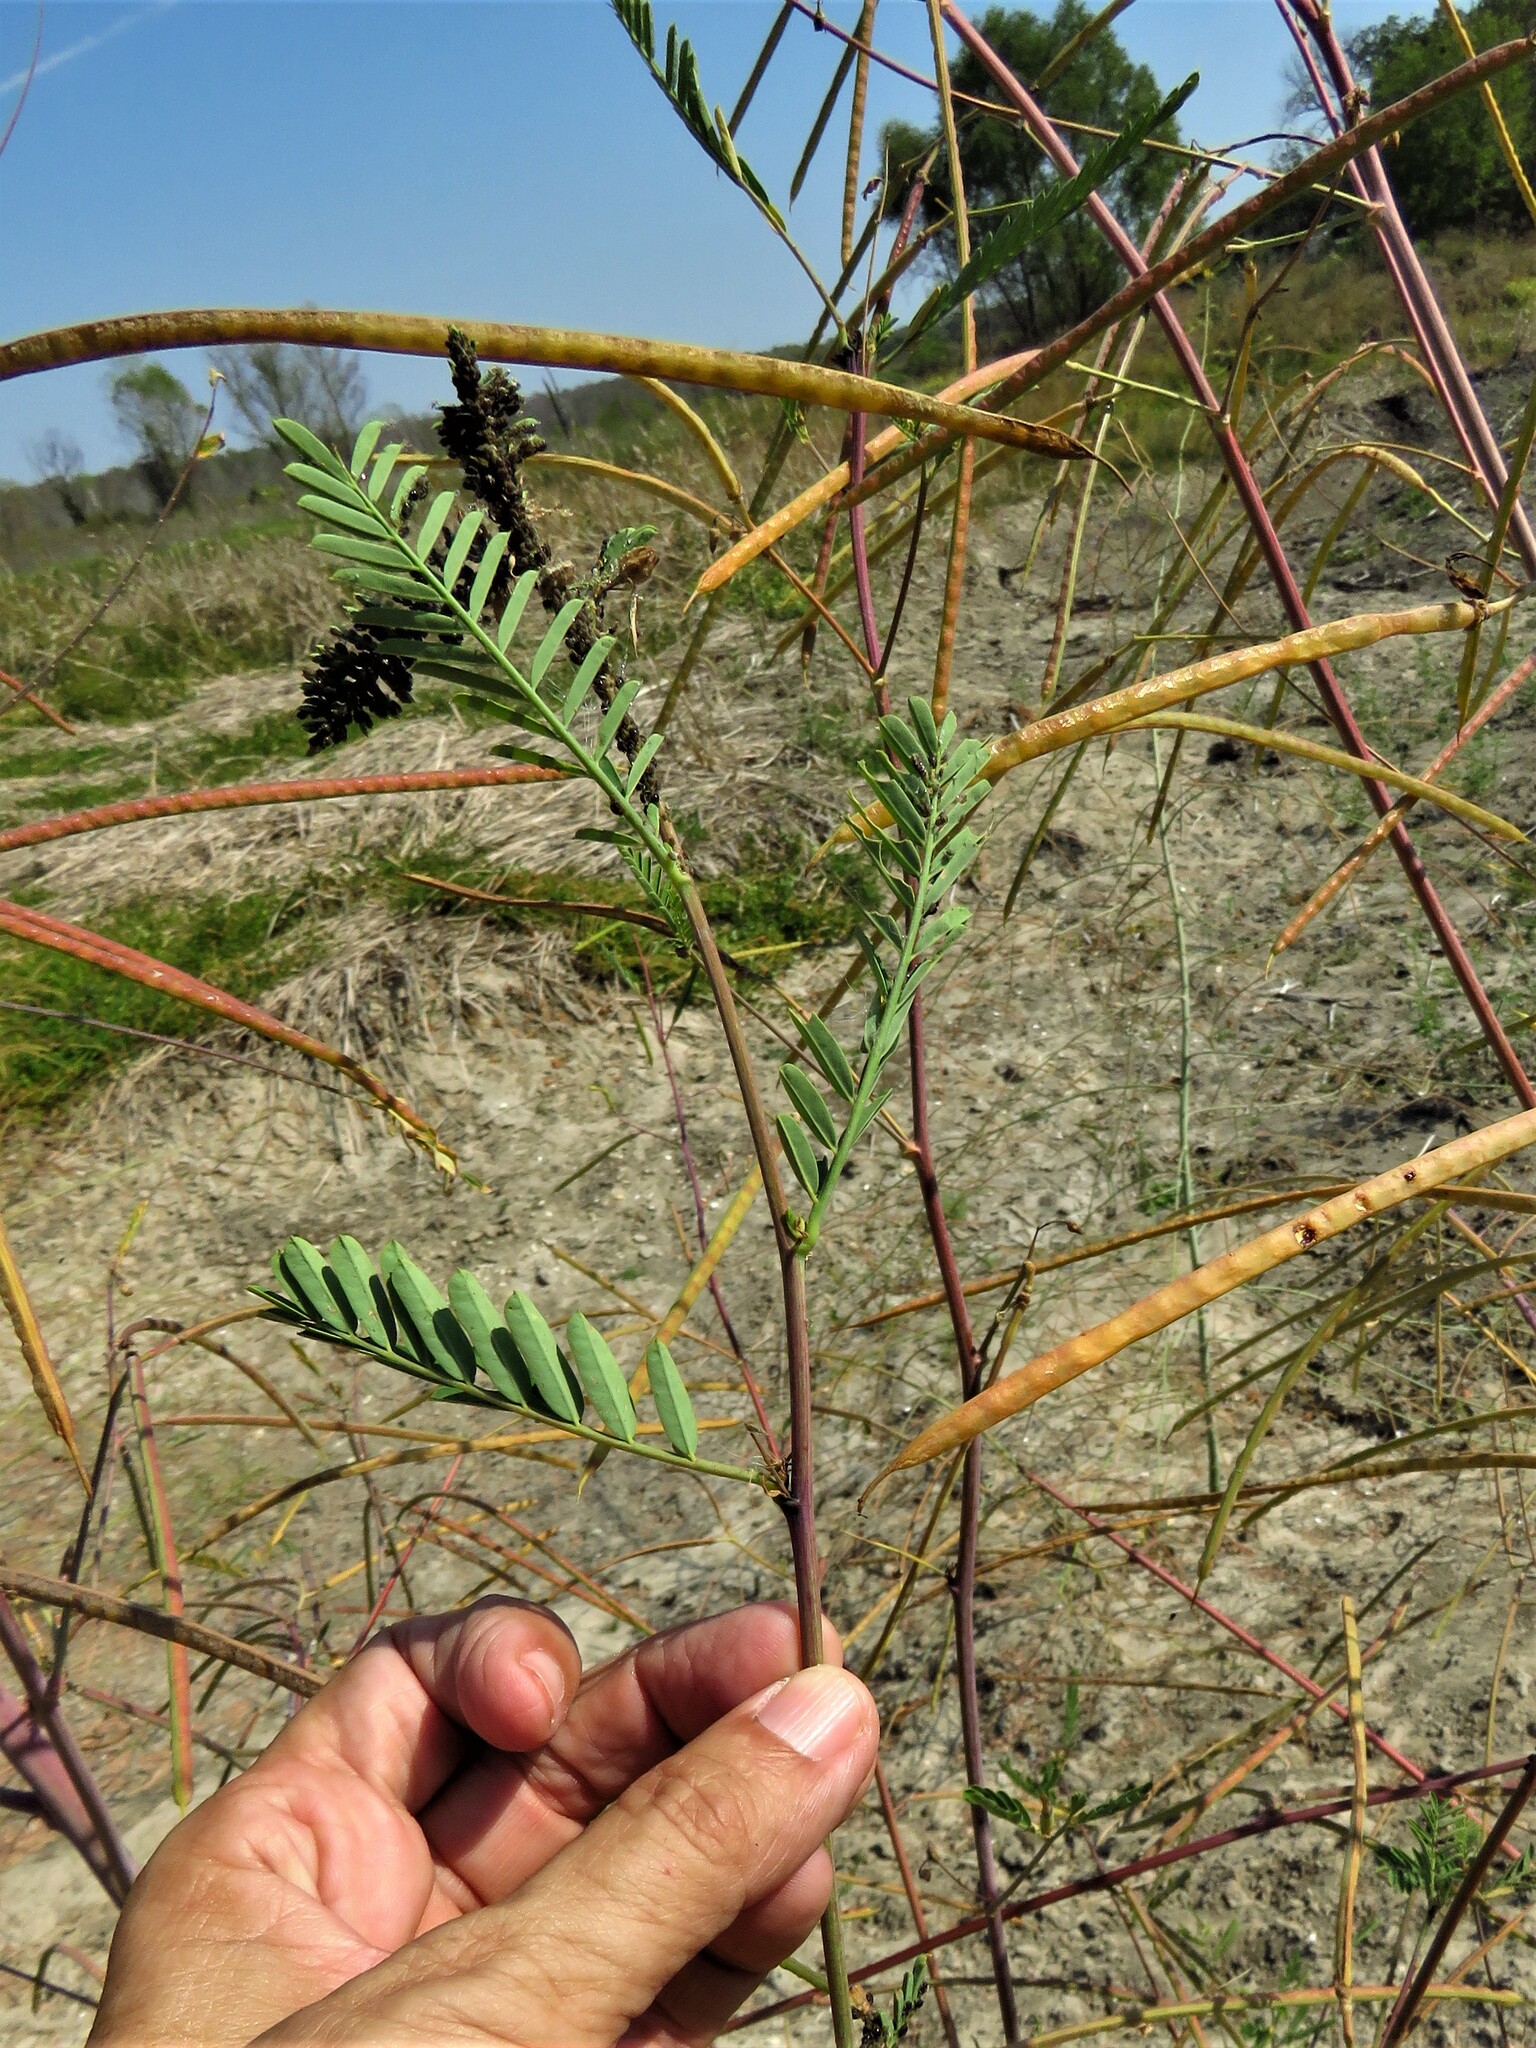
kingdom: Plantae
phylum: Tracheophyta
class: Magnoliopsida
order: Fabales
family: Fabaceae
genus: Sesbania
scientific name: Sesbania herbacea
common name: Bigpod sesbania
